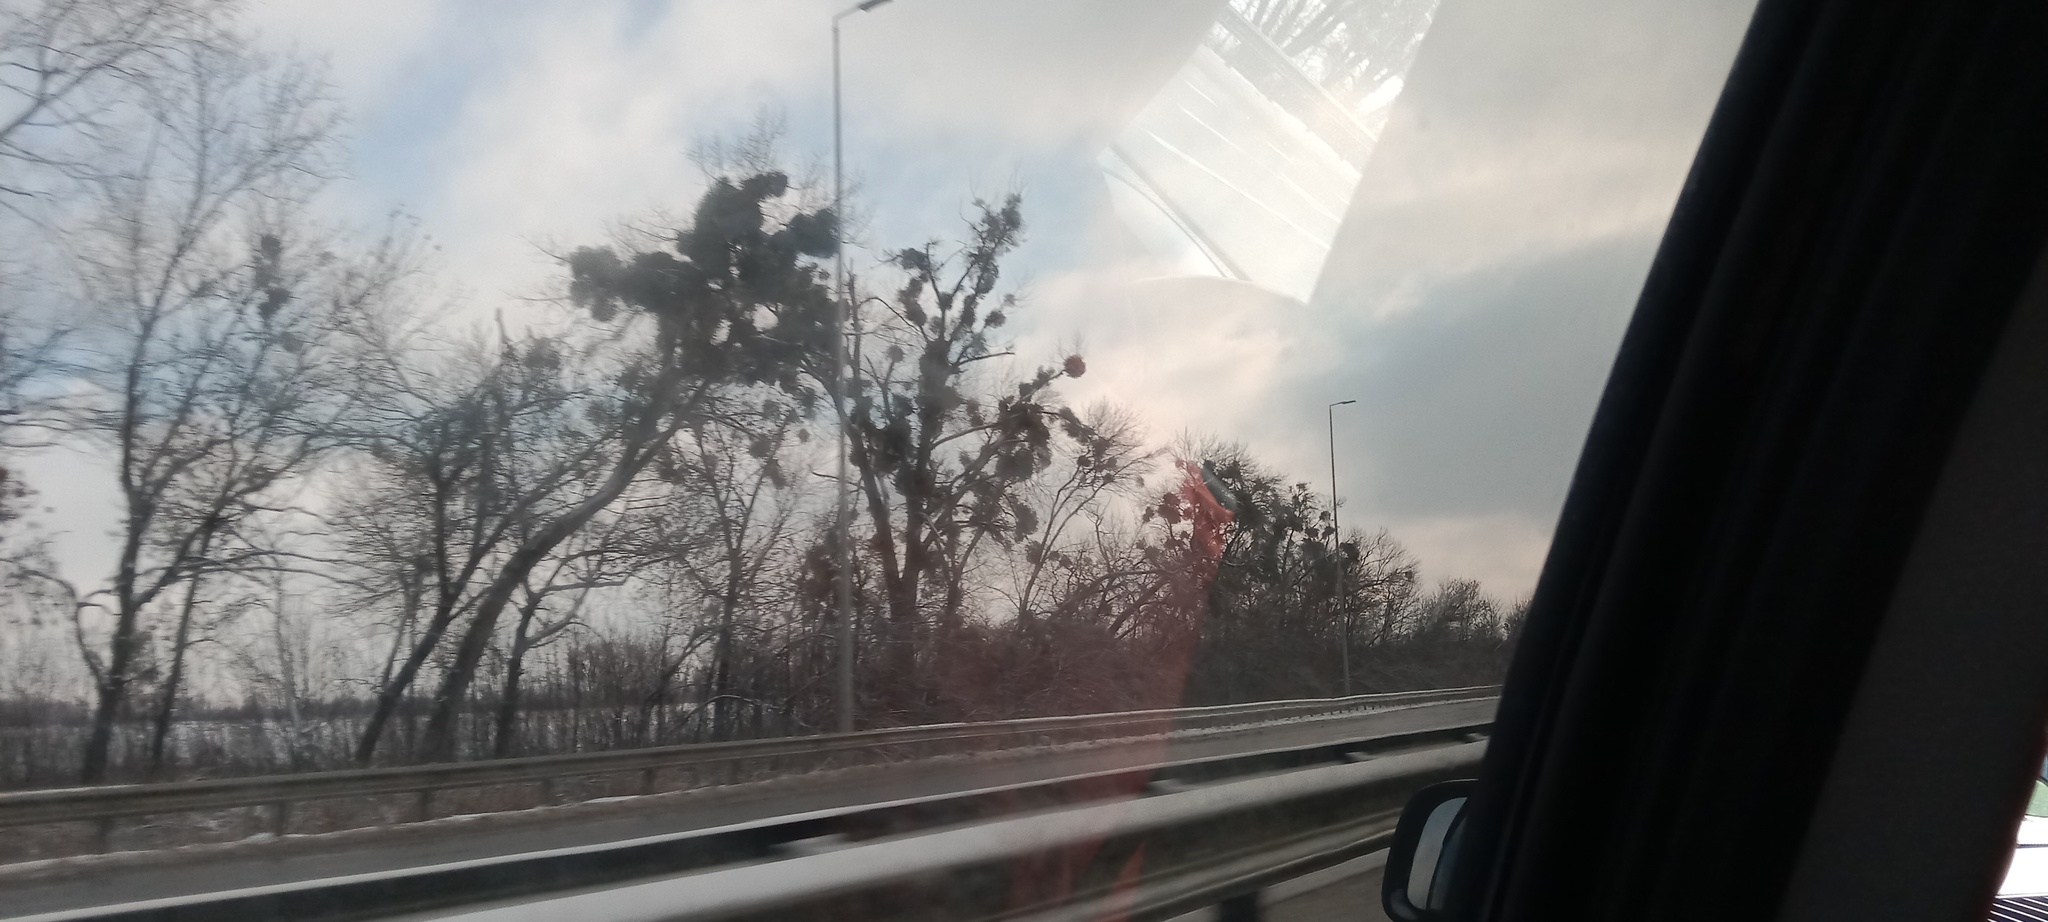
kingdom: Plantae
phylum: Tracheophyta
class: Magnoliopsida
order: Santalales
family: Viscaceae
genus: Viscum
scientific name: Viscum album
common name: Mistletoe
